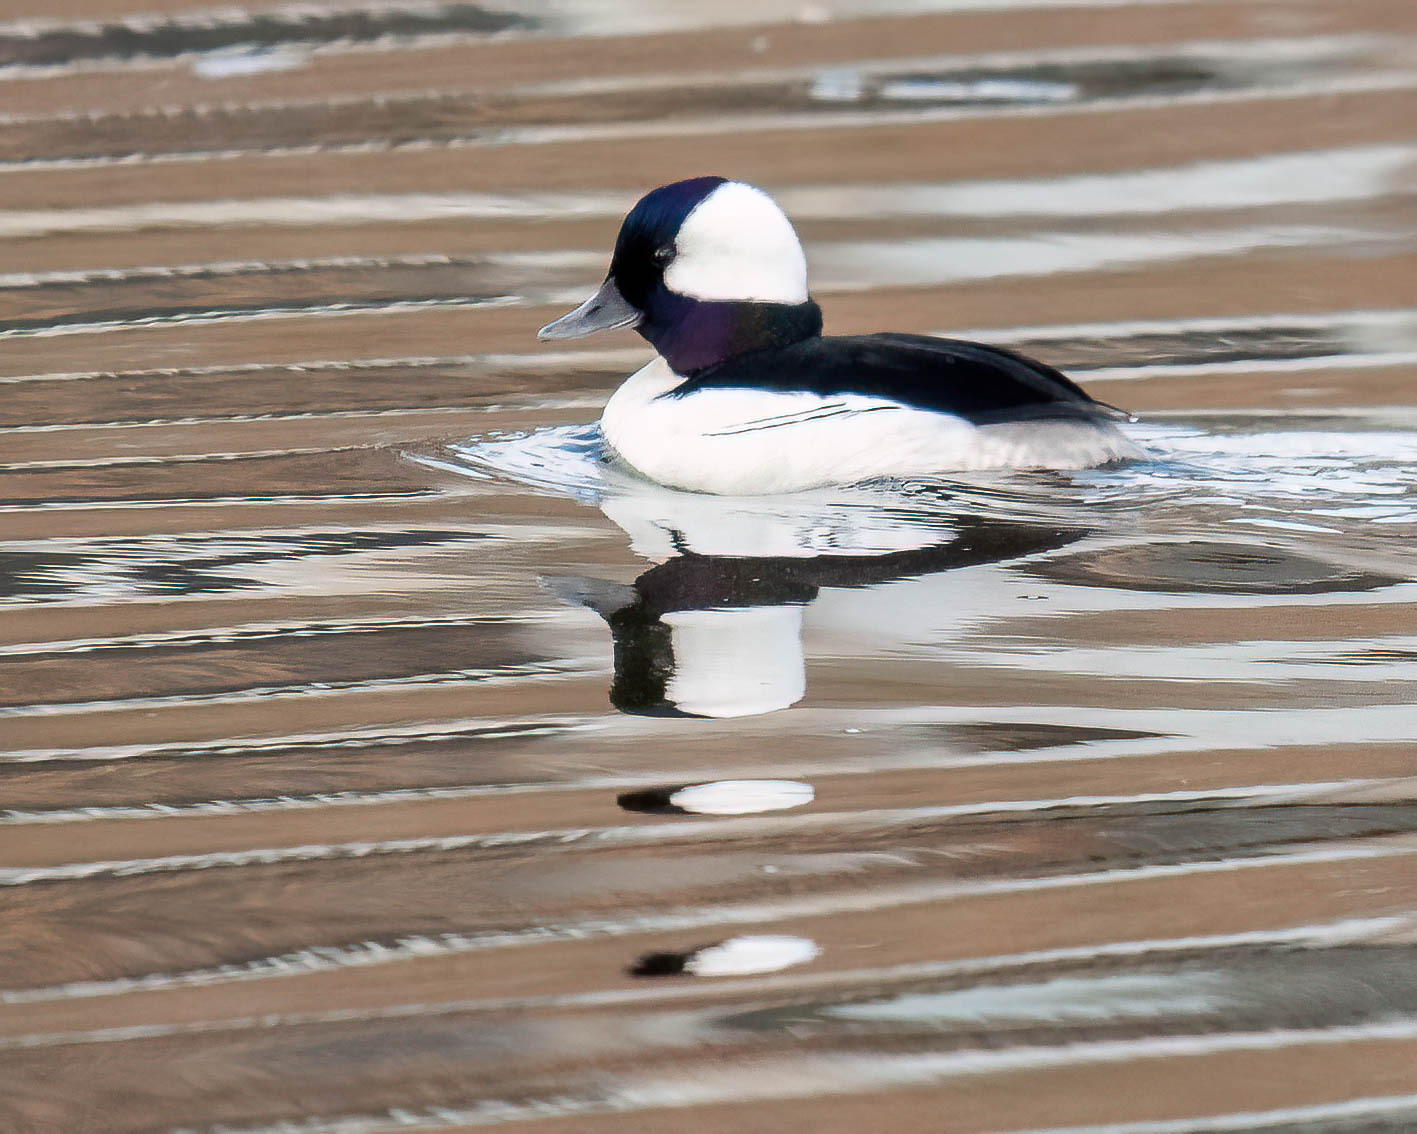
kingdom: Animalia
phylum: Chordata
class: Aves
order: Anseriformes
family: Anatidae
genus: Bucephala
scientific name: Bucephala albeola
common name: Bufflehead
